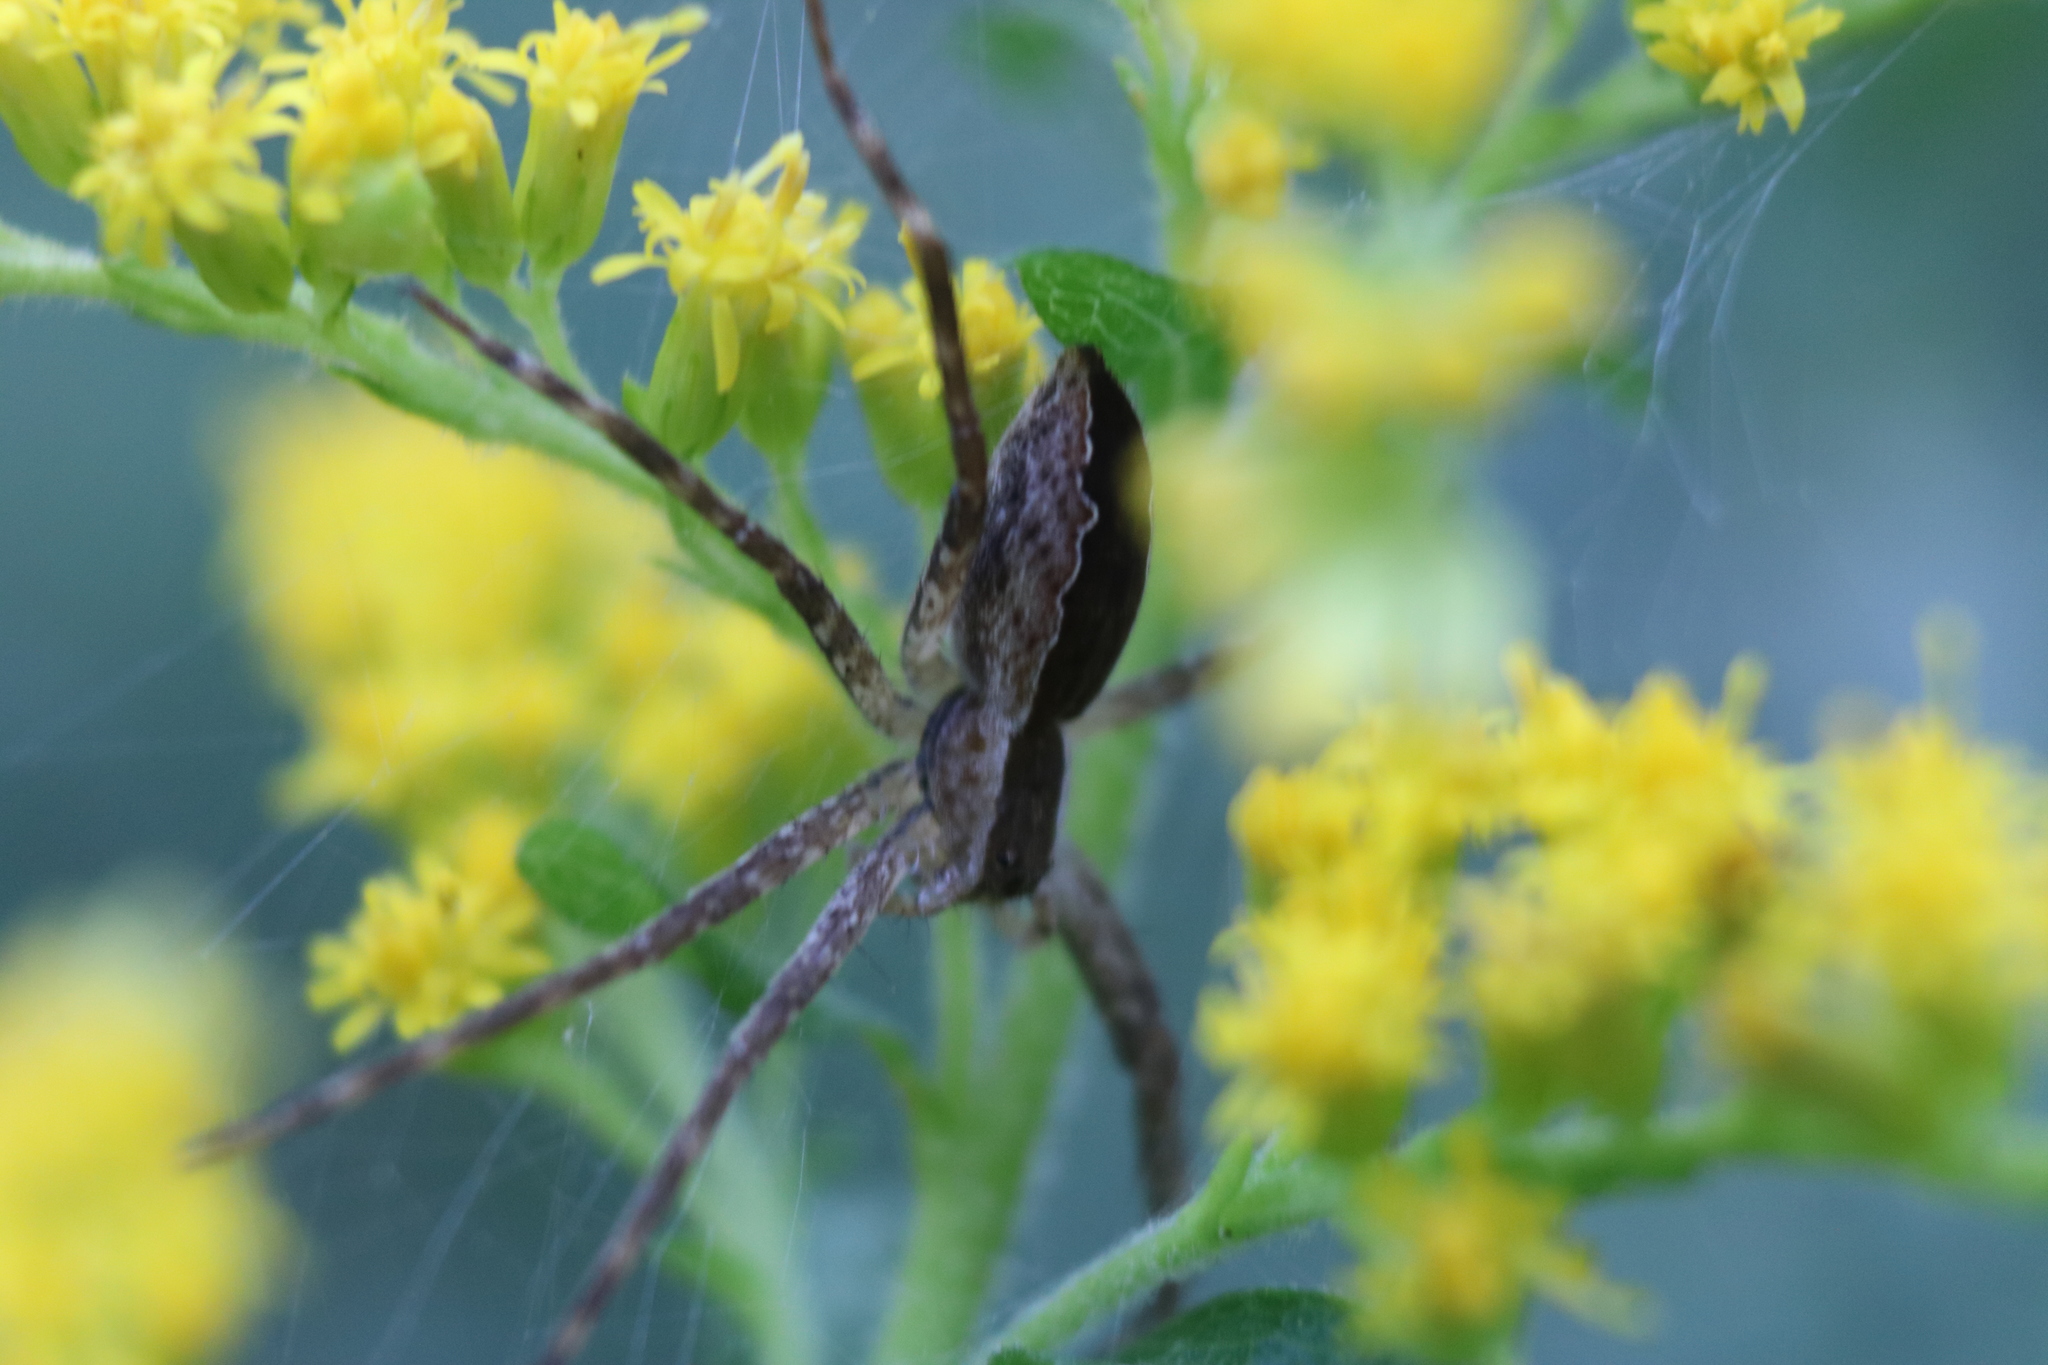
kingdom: Animalia
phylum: Arthropoda
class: Arachnida
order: Araneae
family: Pisauridae
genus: Pisaurina
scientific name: Pisaurina mira
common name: American nursery web spider
